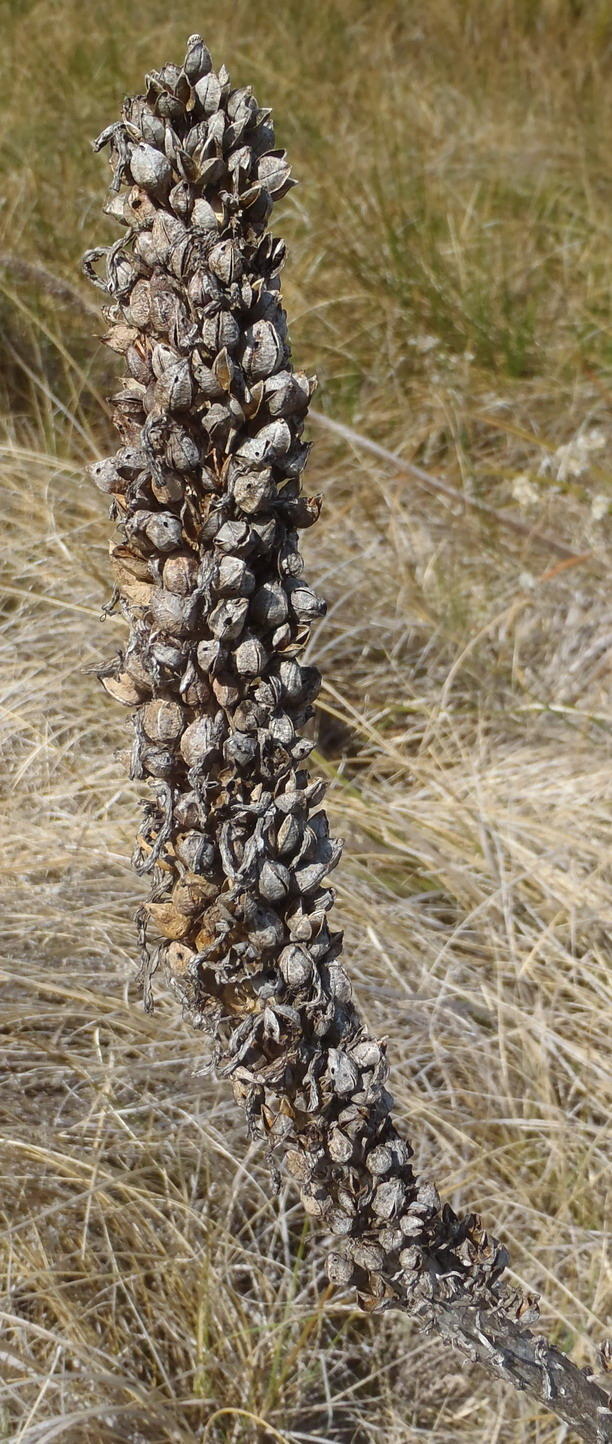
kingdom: Plantae
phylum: Tracheophyta
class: Liliopsida
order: Asparagales
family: Asphodelaceae
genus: Kniphofia
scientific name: Kniphofia bruceae
